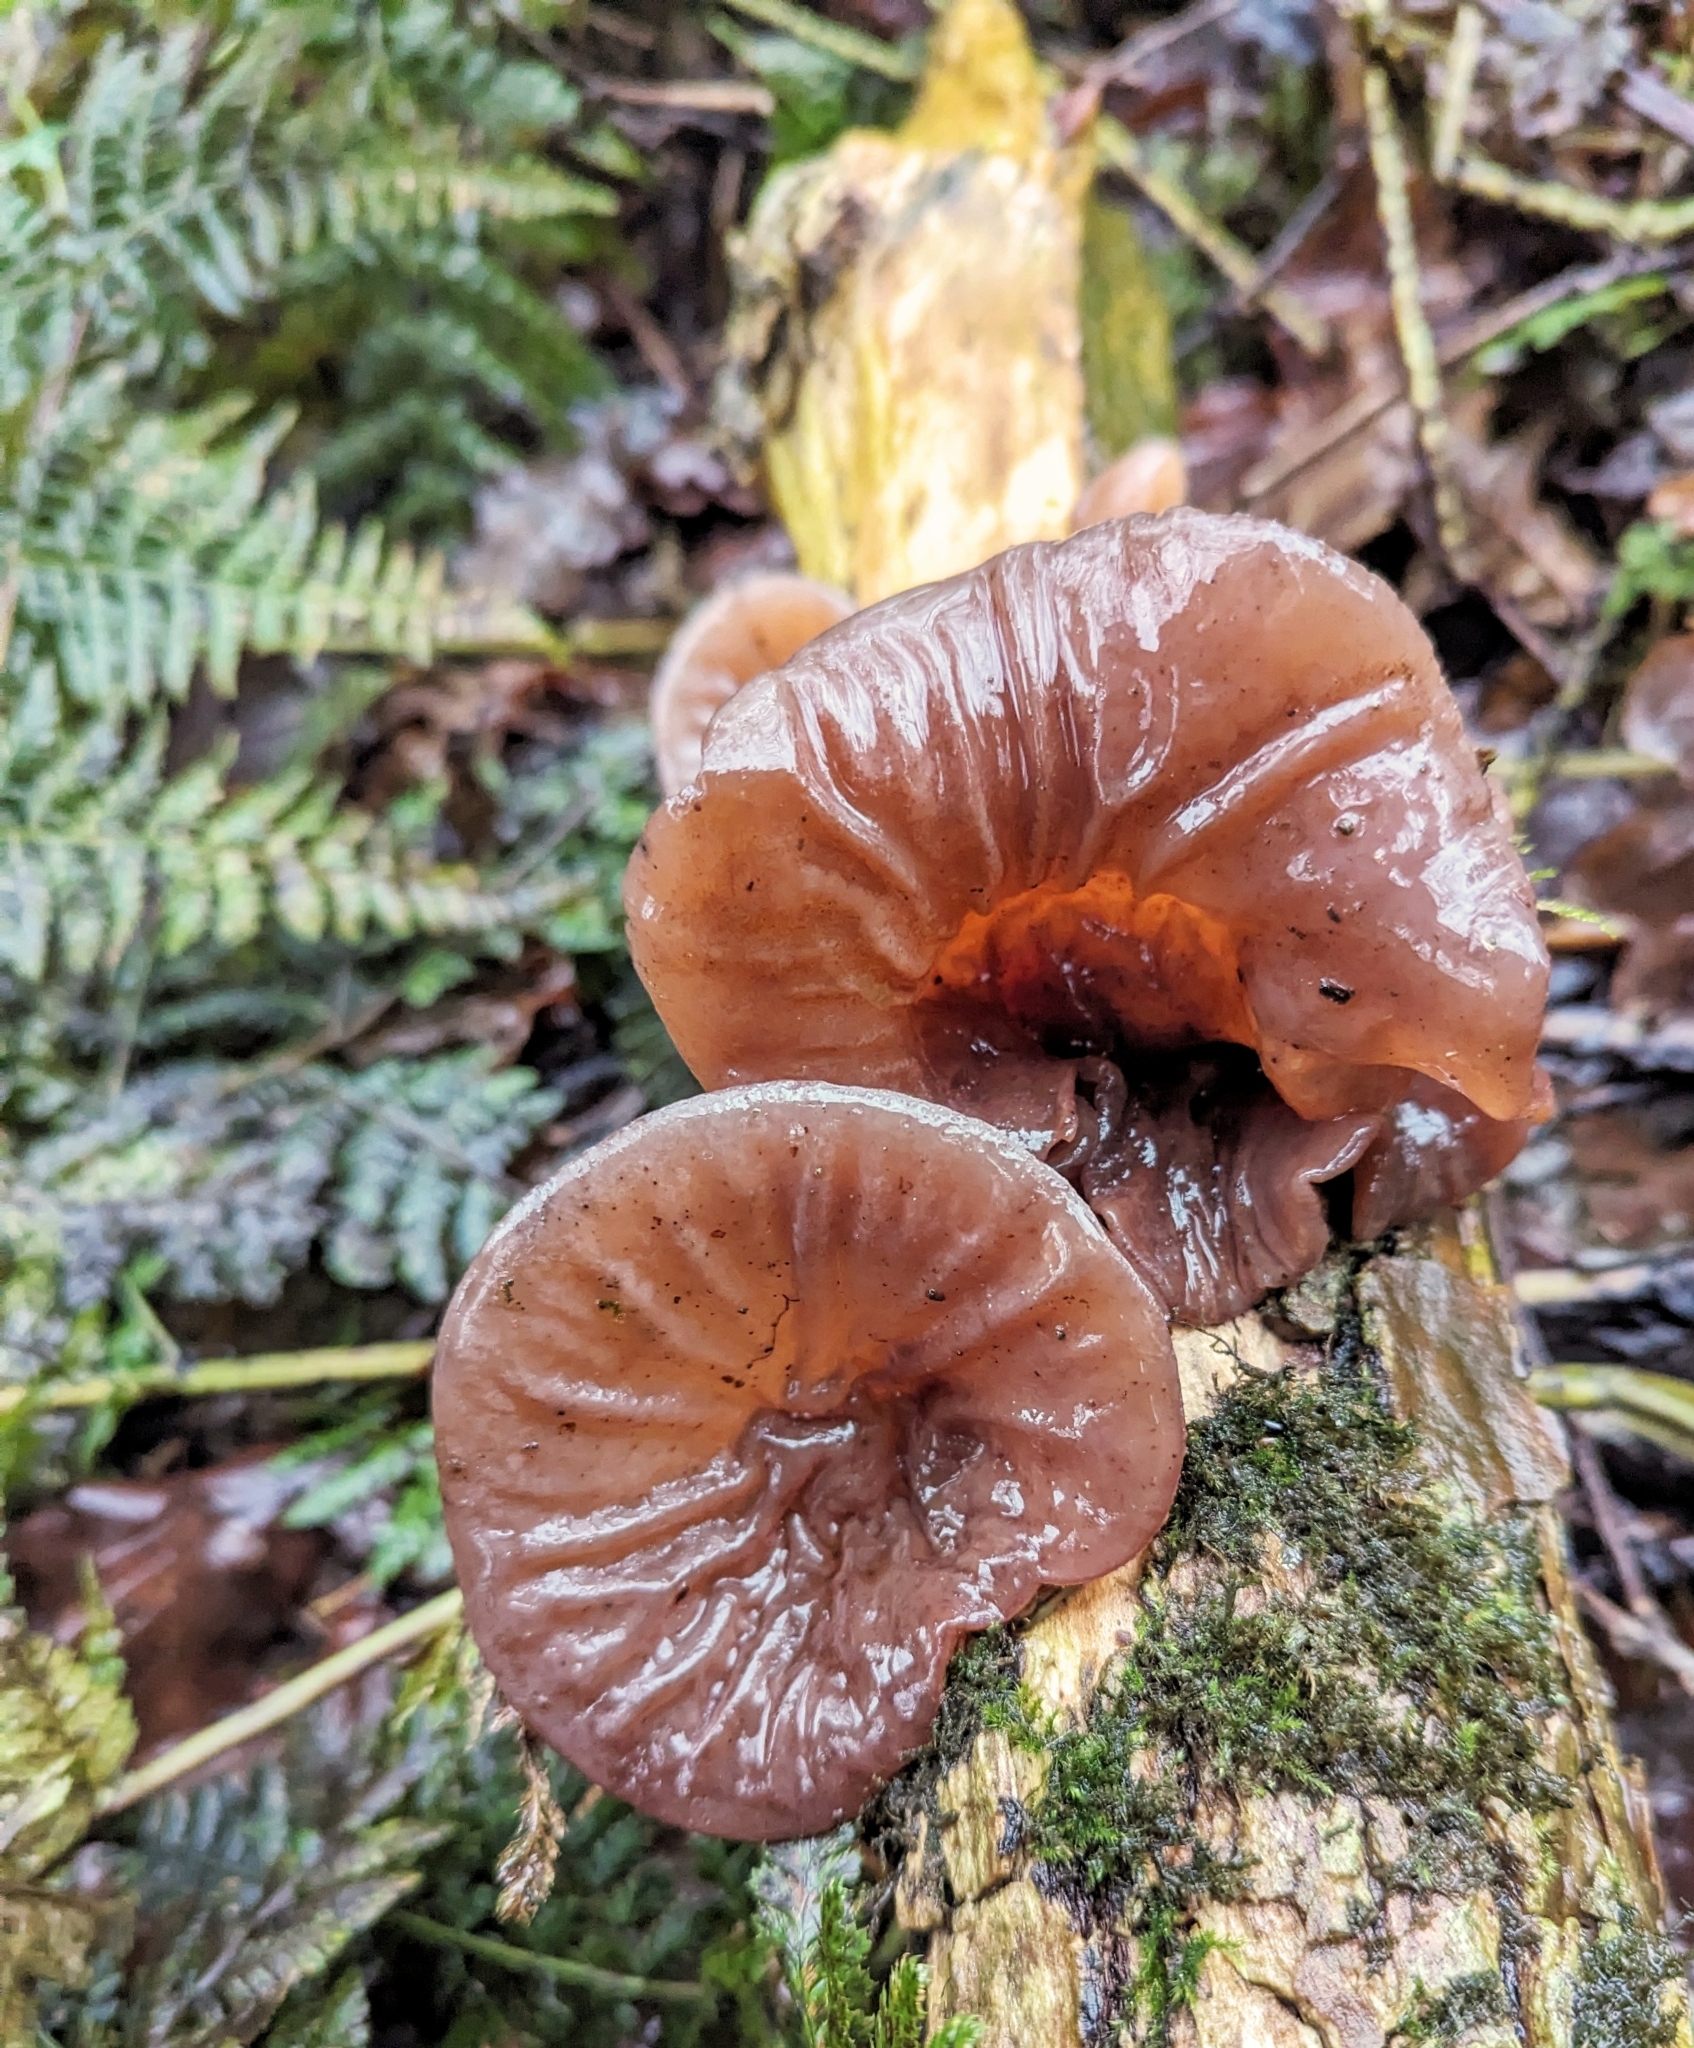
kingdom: Fungi
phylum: Basidiomycota
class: Agaricomycetes
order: Auriculariales
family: Auriculariaceae
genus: Auricularia
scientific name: Auricularia auricula-judae
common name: Jelly ear
